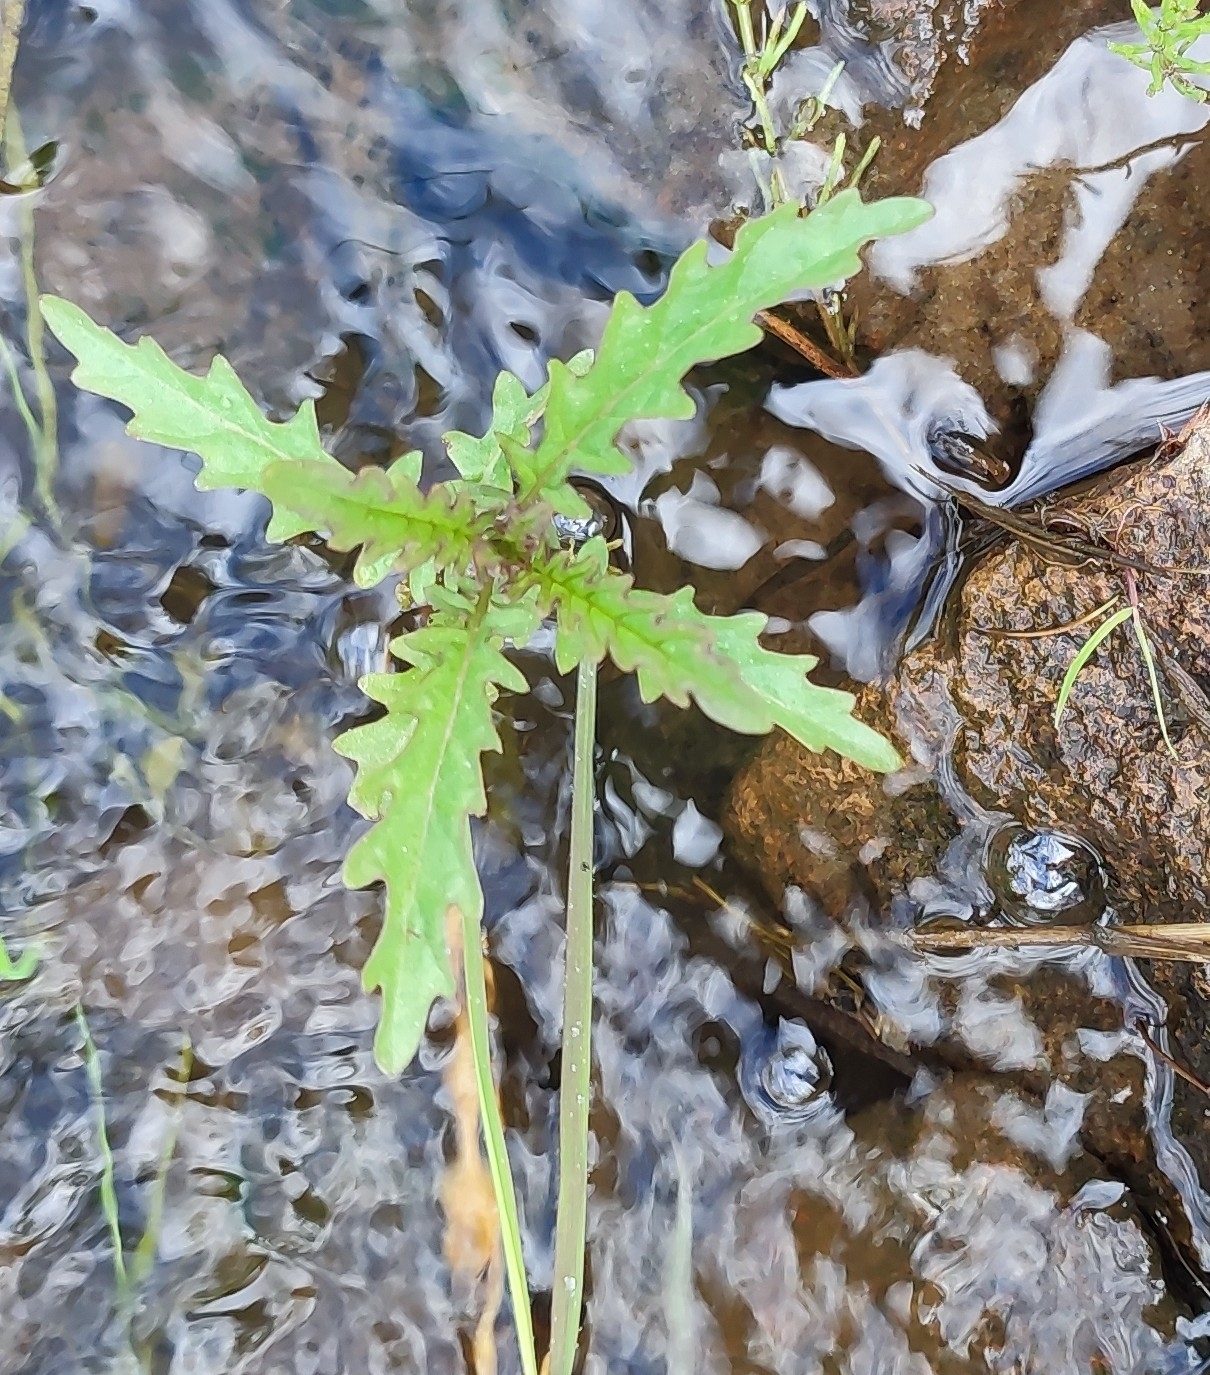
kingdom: Plantae
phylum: Tracheophyta
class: Magnoliopsida
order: Lamiales
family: Lamiaceae
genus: Lycopus
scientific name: Lycopus europaeus
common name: European bugleweed
